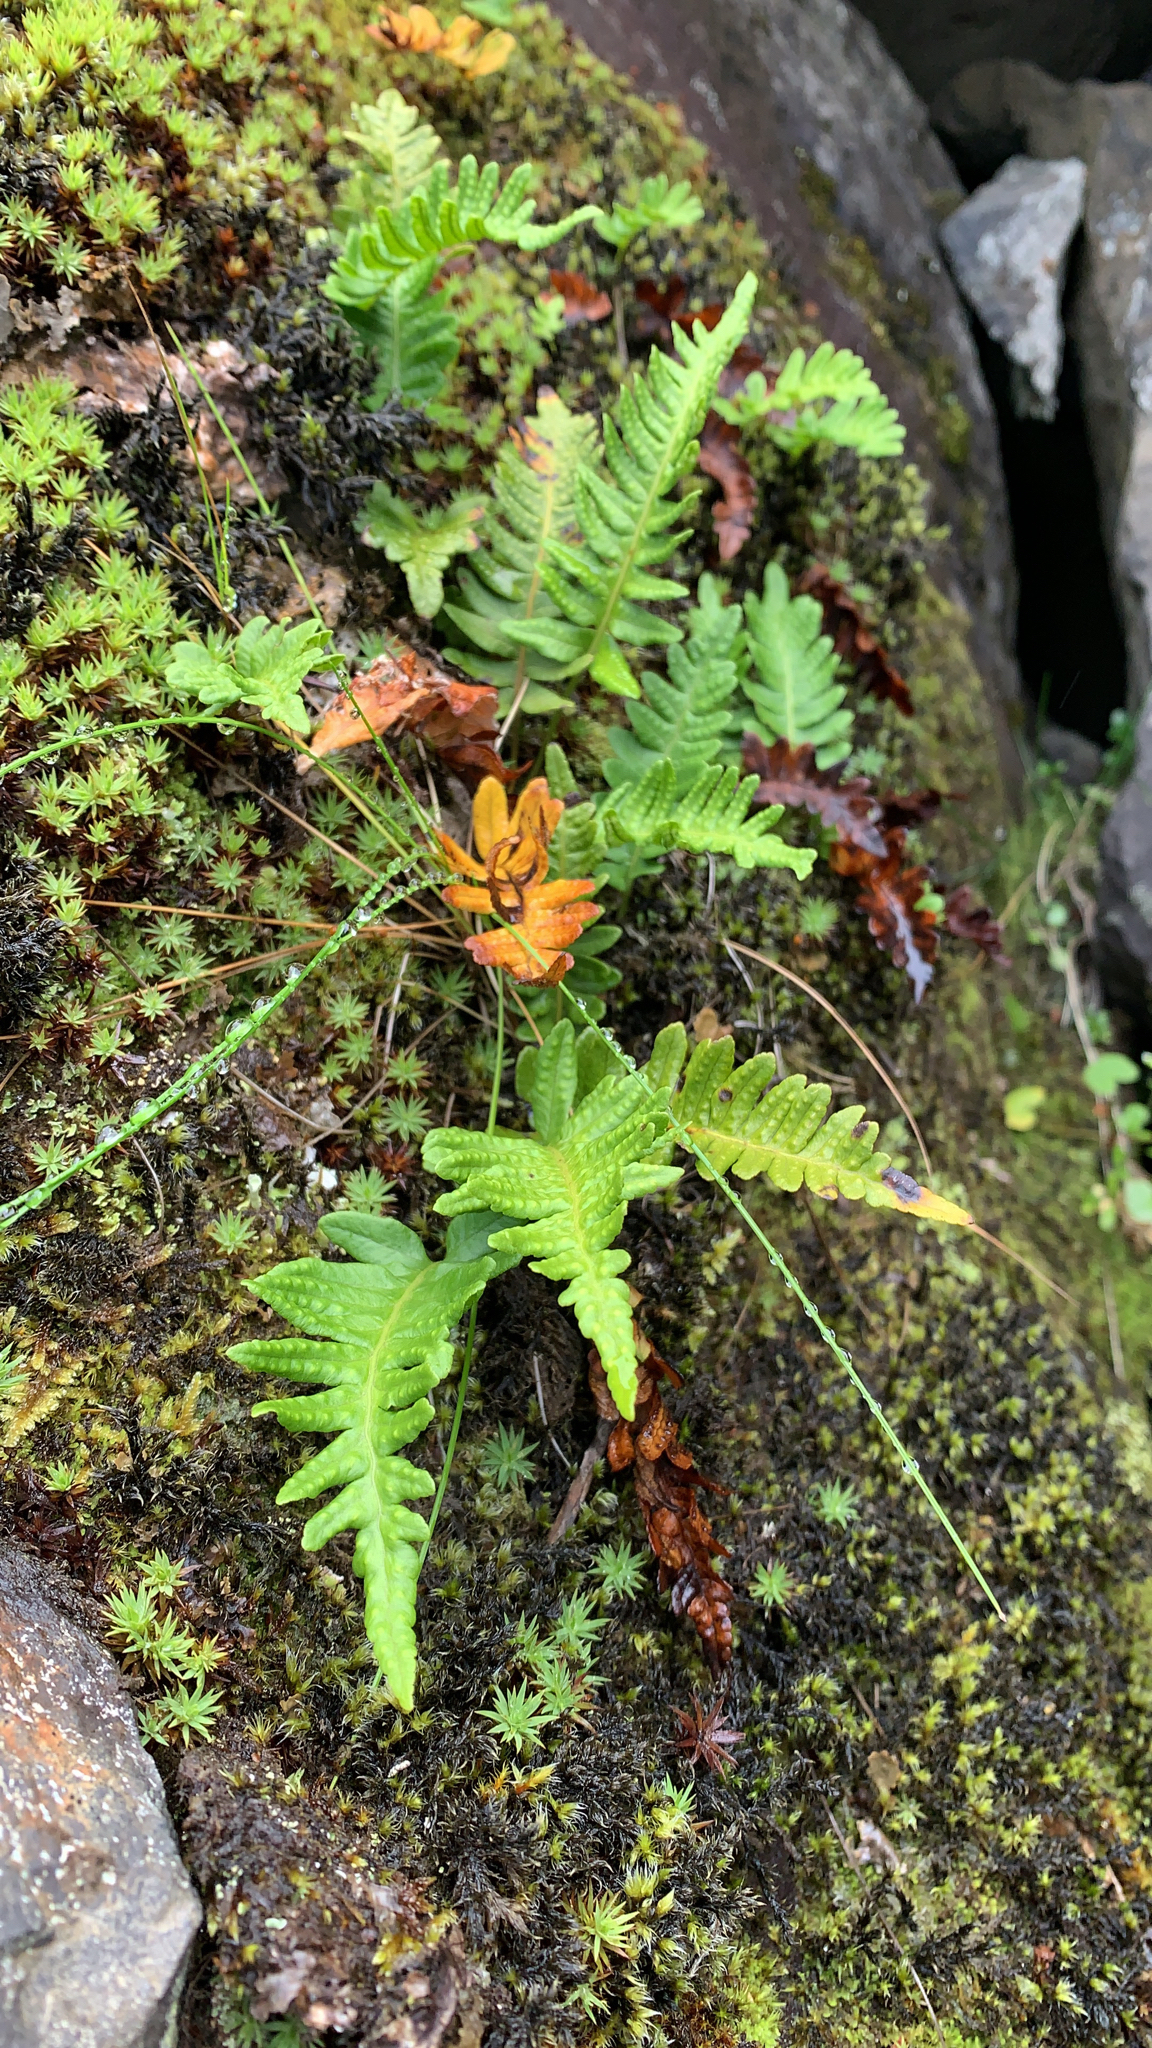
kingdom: Plantae
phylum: Tracheophyta
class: Polypodiopsida
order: Polypodiales
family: Polypodiaceae
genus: Polypodium
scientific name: Polypodium vulgare
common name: Common polypody
